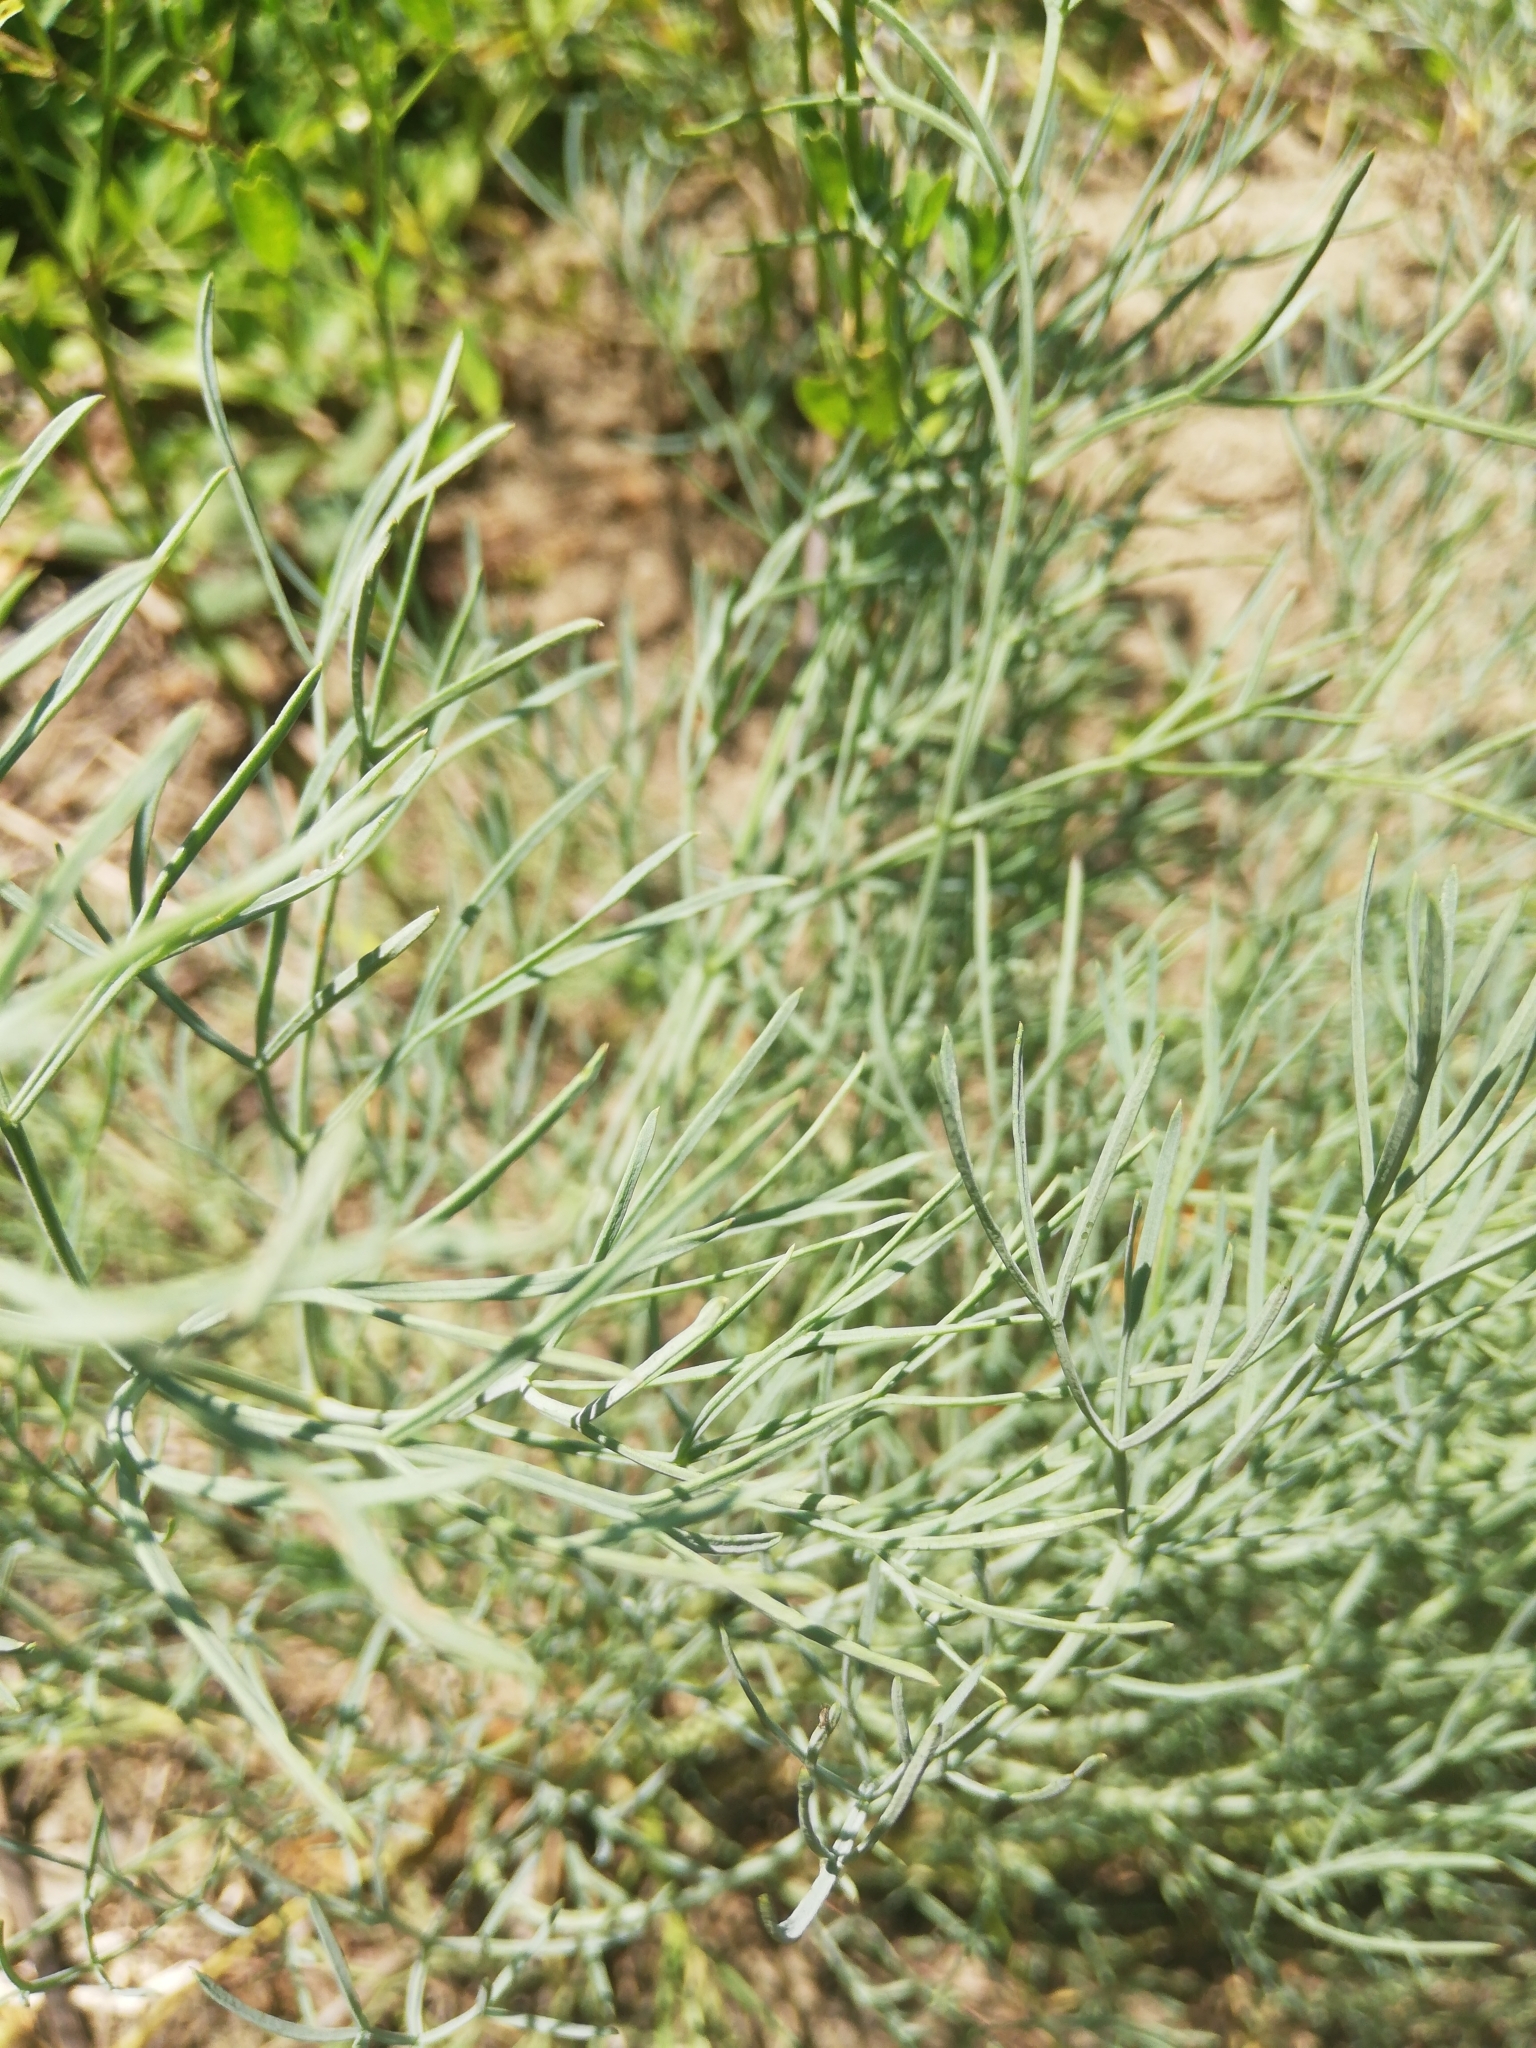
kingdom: Plantae
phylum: Tracheophyta
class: Magnoliopsida
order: Apiales
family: Apiaceae
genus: Seseli
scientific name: Seseli ledebourii
